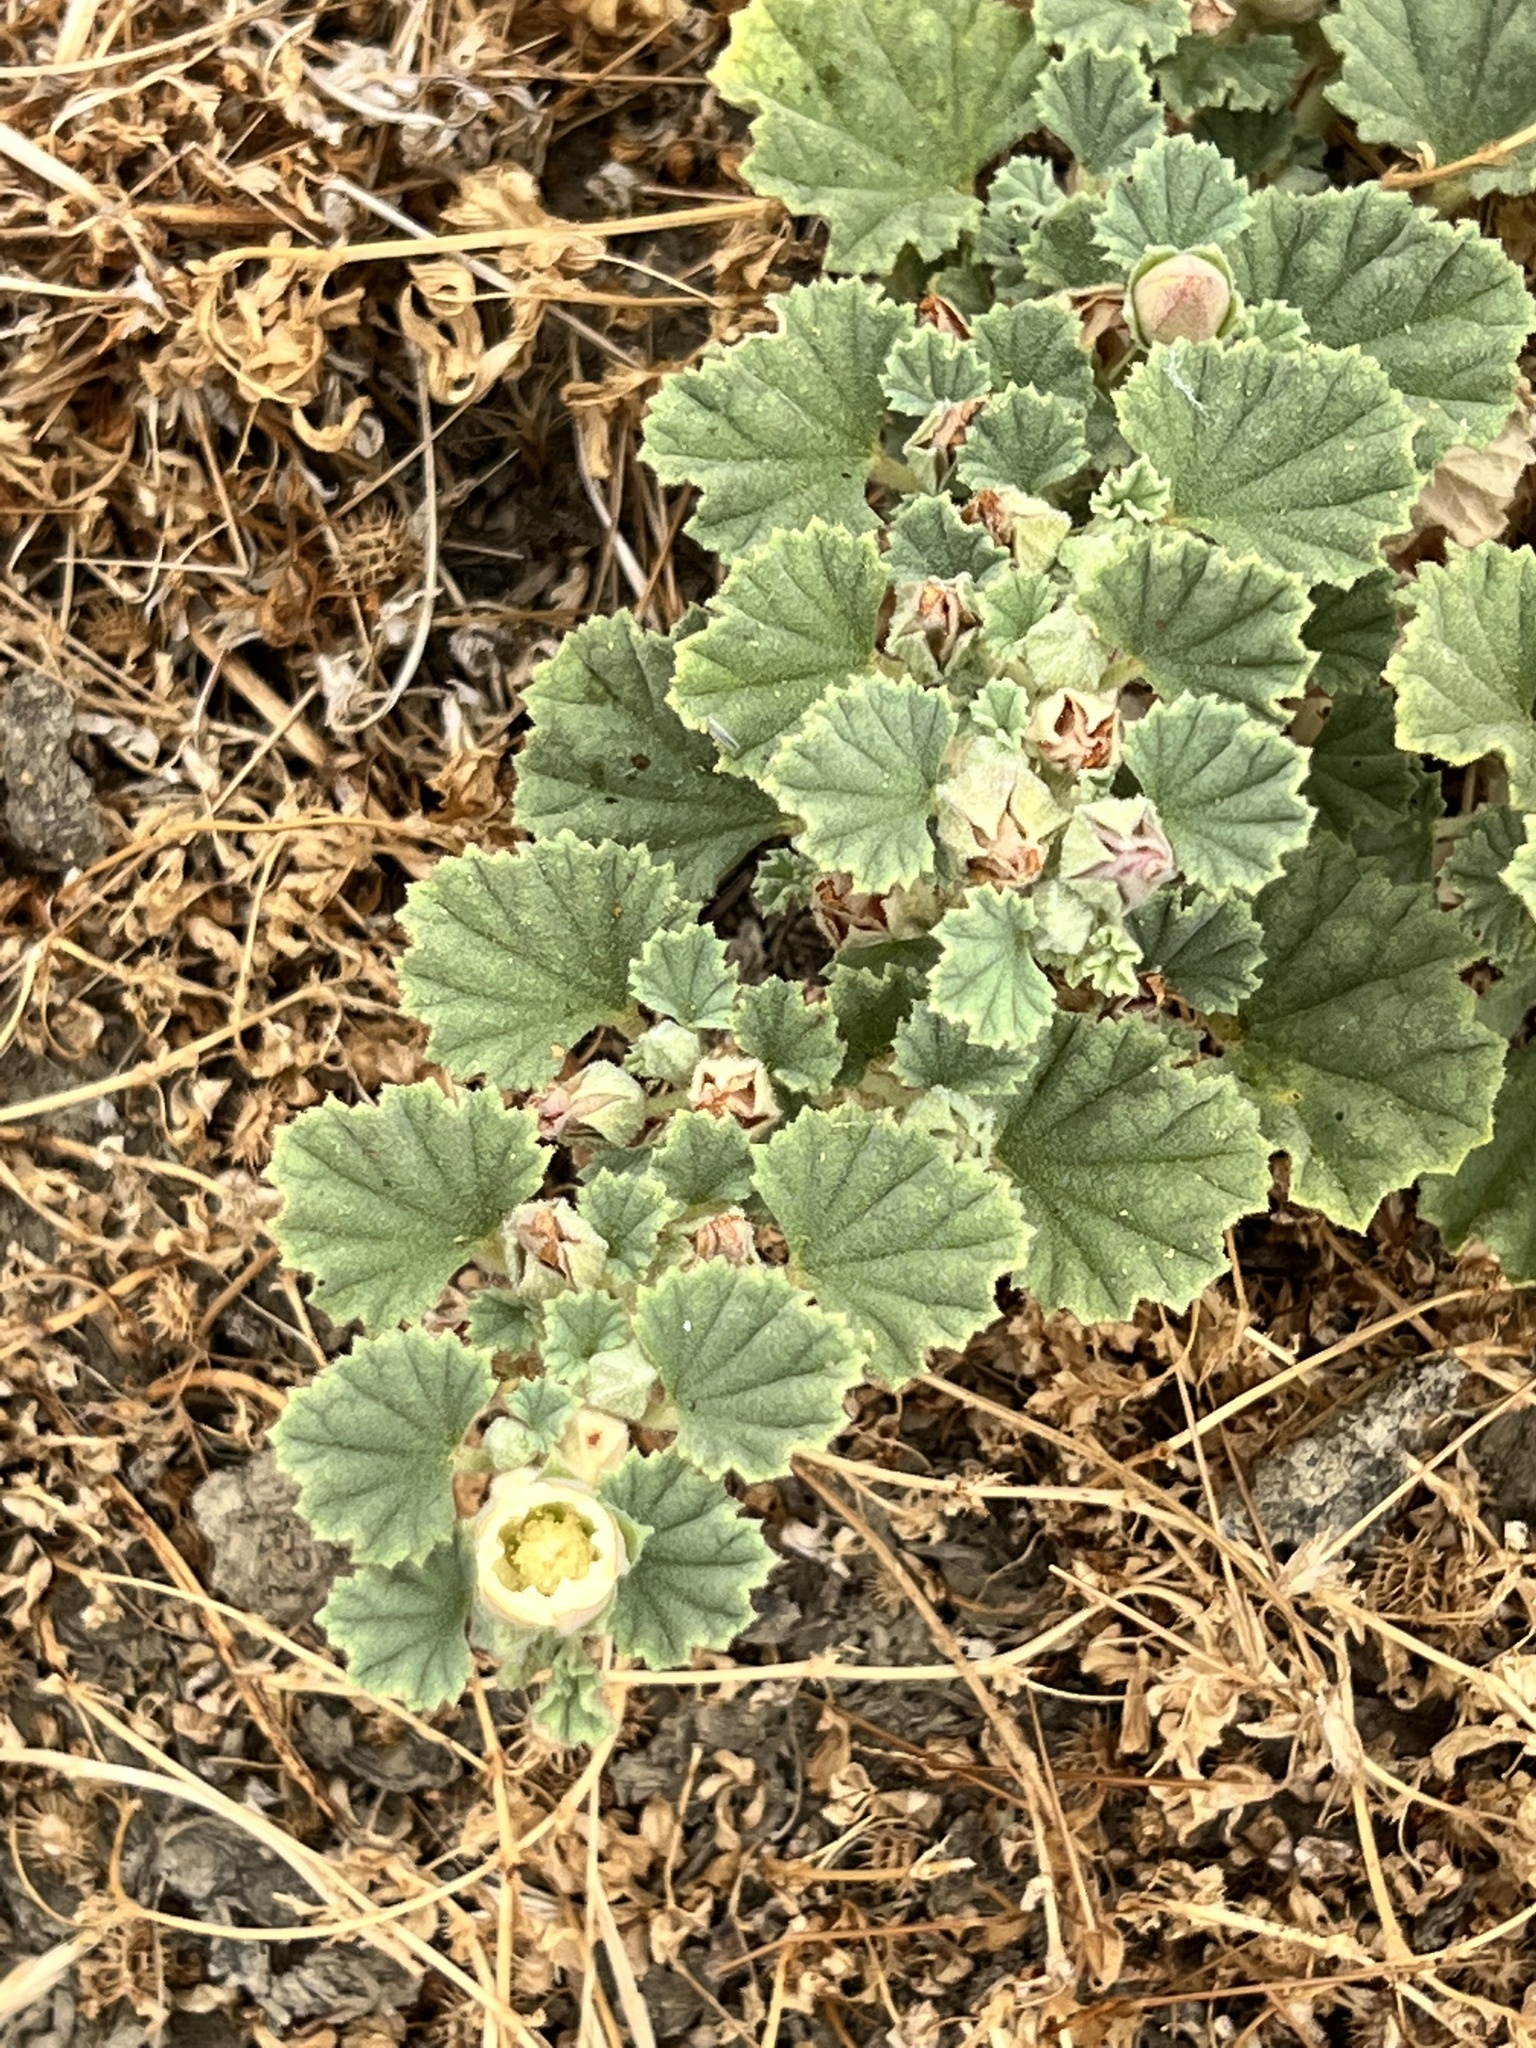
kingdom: Plantae
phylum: Tracheophyta
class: Magnoliopsida
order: Malvales
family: Malvaceae
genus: Malvella
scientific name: Malvella leprosa
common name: Alkali-mallow
